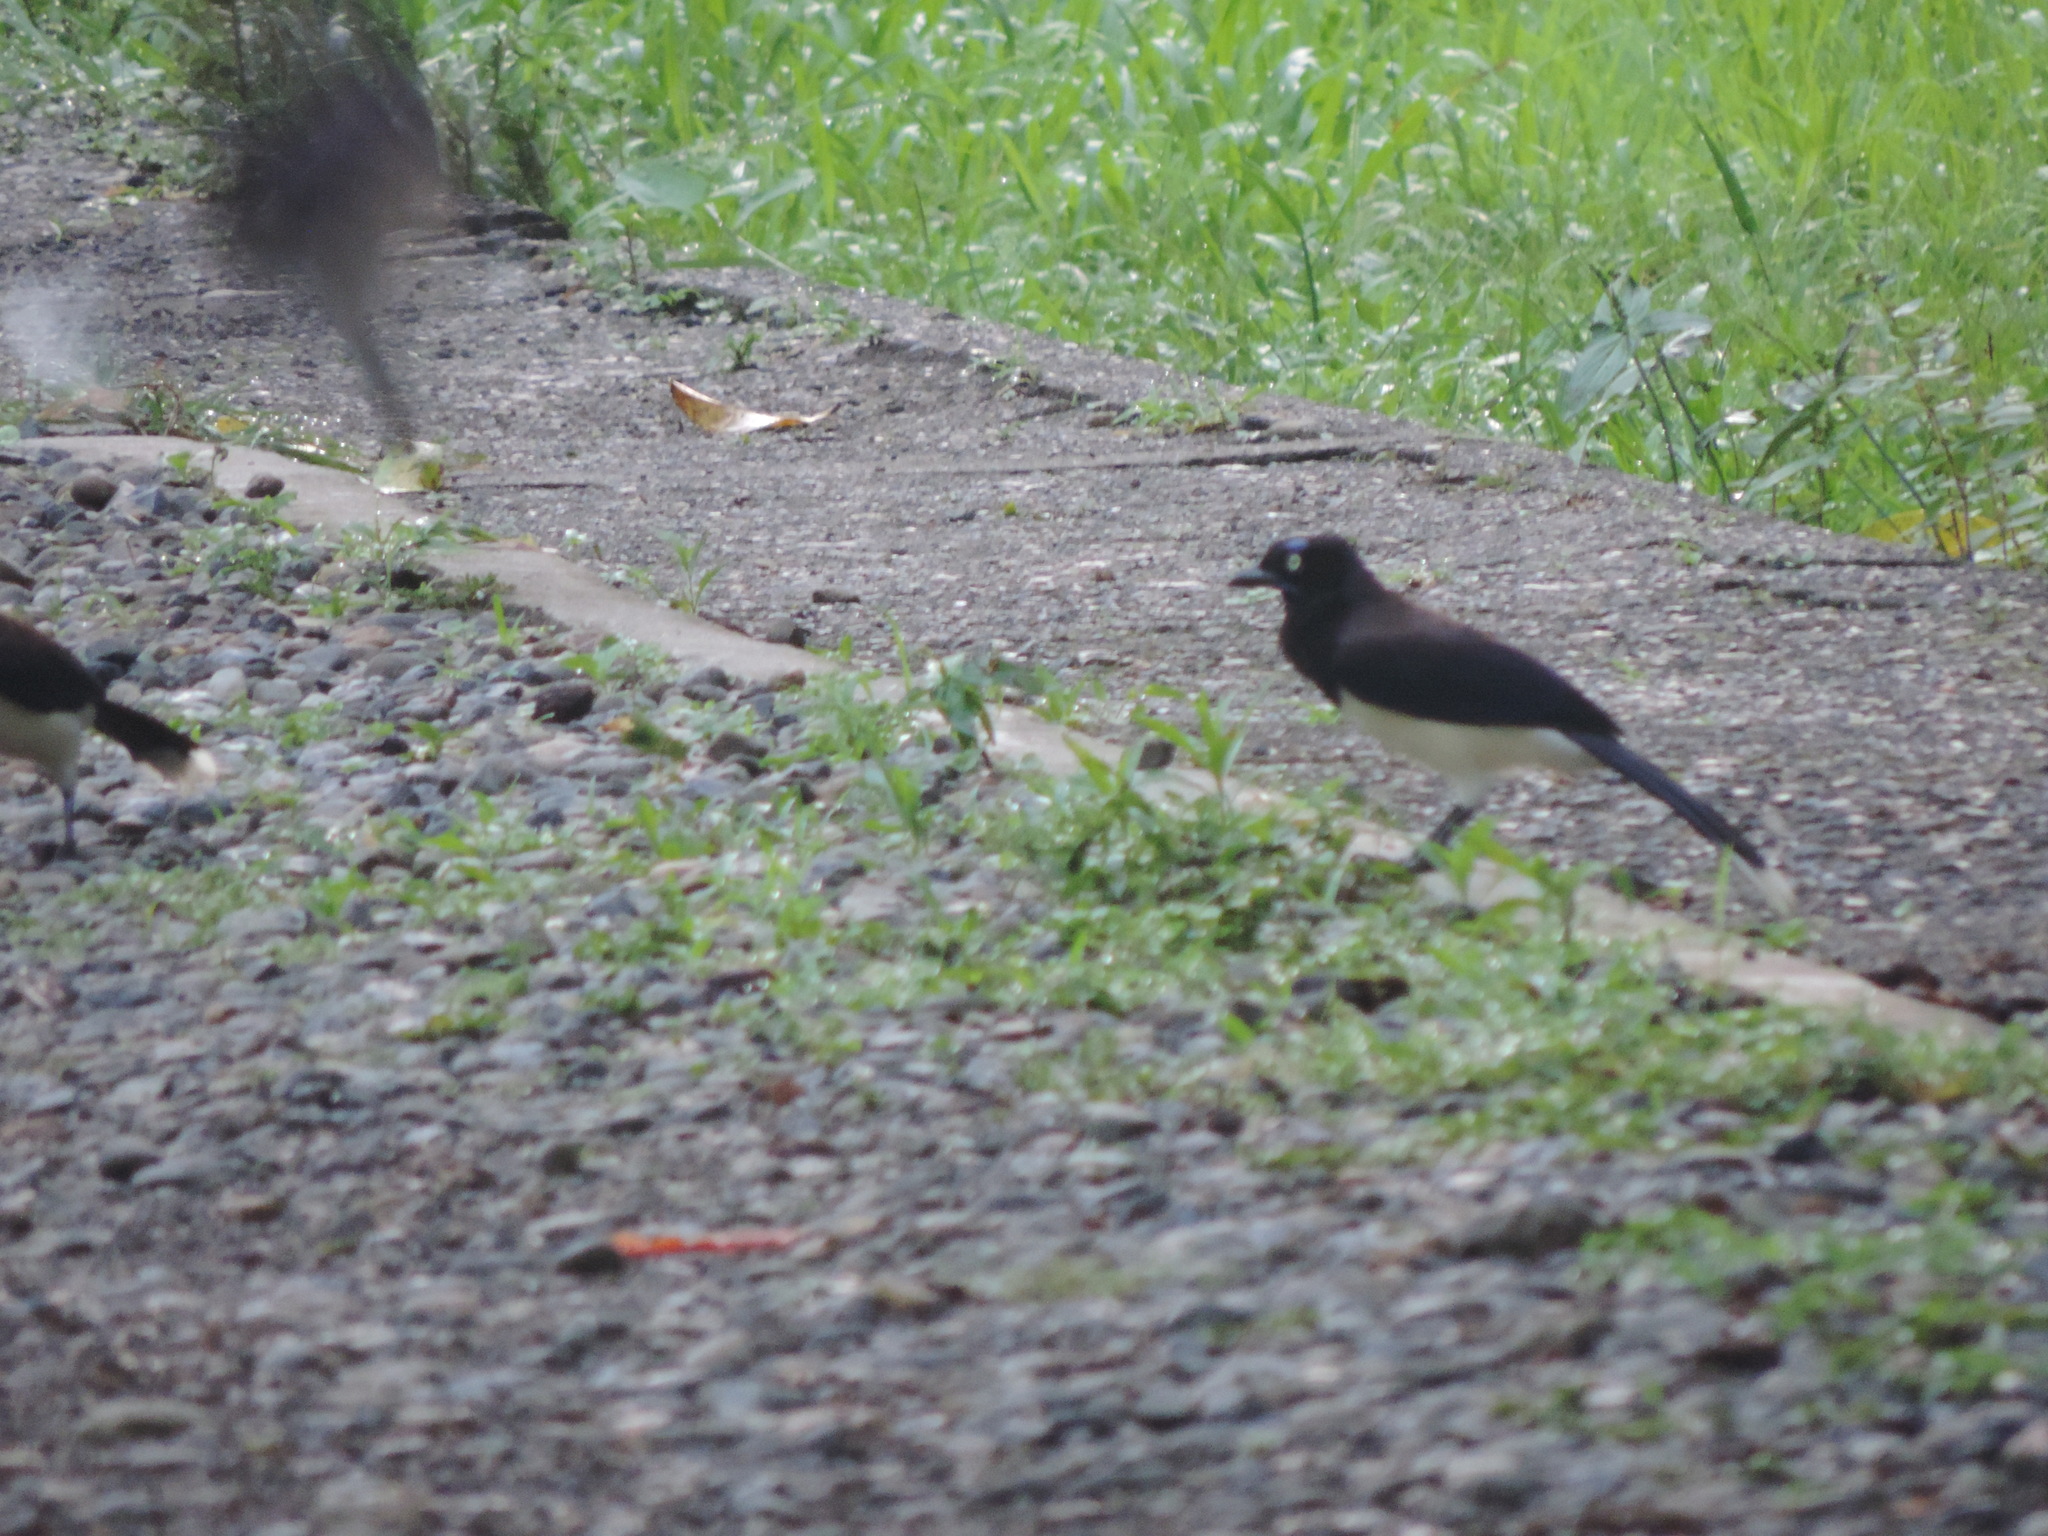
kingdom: Animalia
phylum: Chordata
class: Aves
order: Passeriformes
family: Corvidae
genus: Cyanocorax
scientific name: Cyanocorax affinis
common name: Black-chested jay
